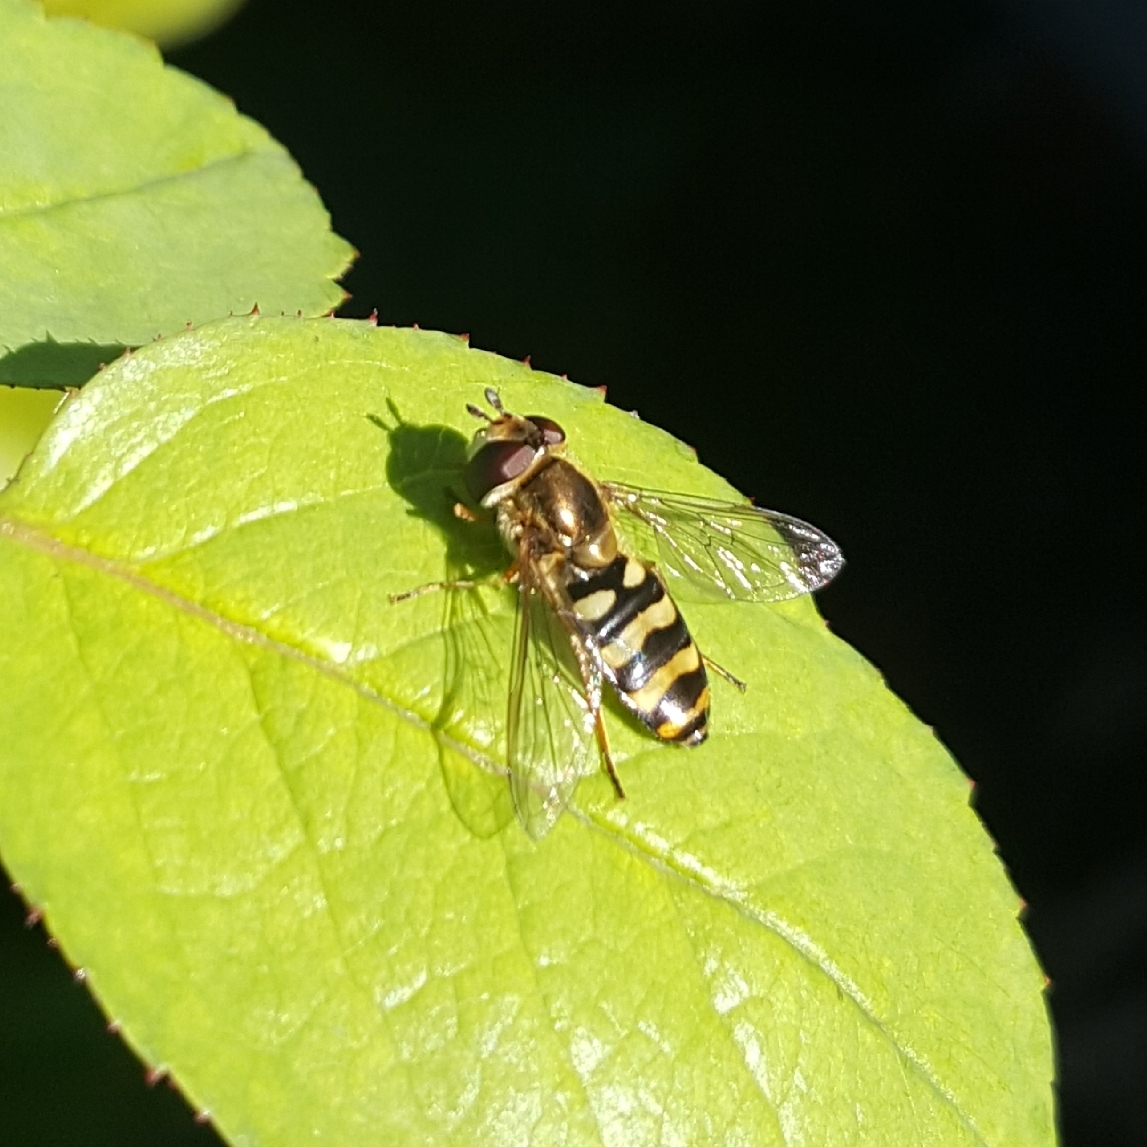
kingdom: Animalia
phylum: Arthropoda
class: Insecta
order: Diptera
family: Syrphidae
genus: Eupeodes
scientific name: Eupeodes fumipennis
